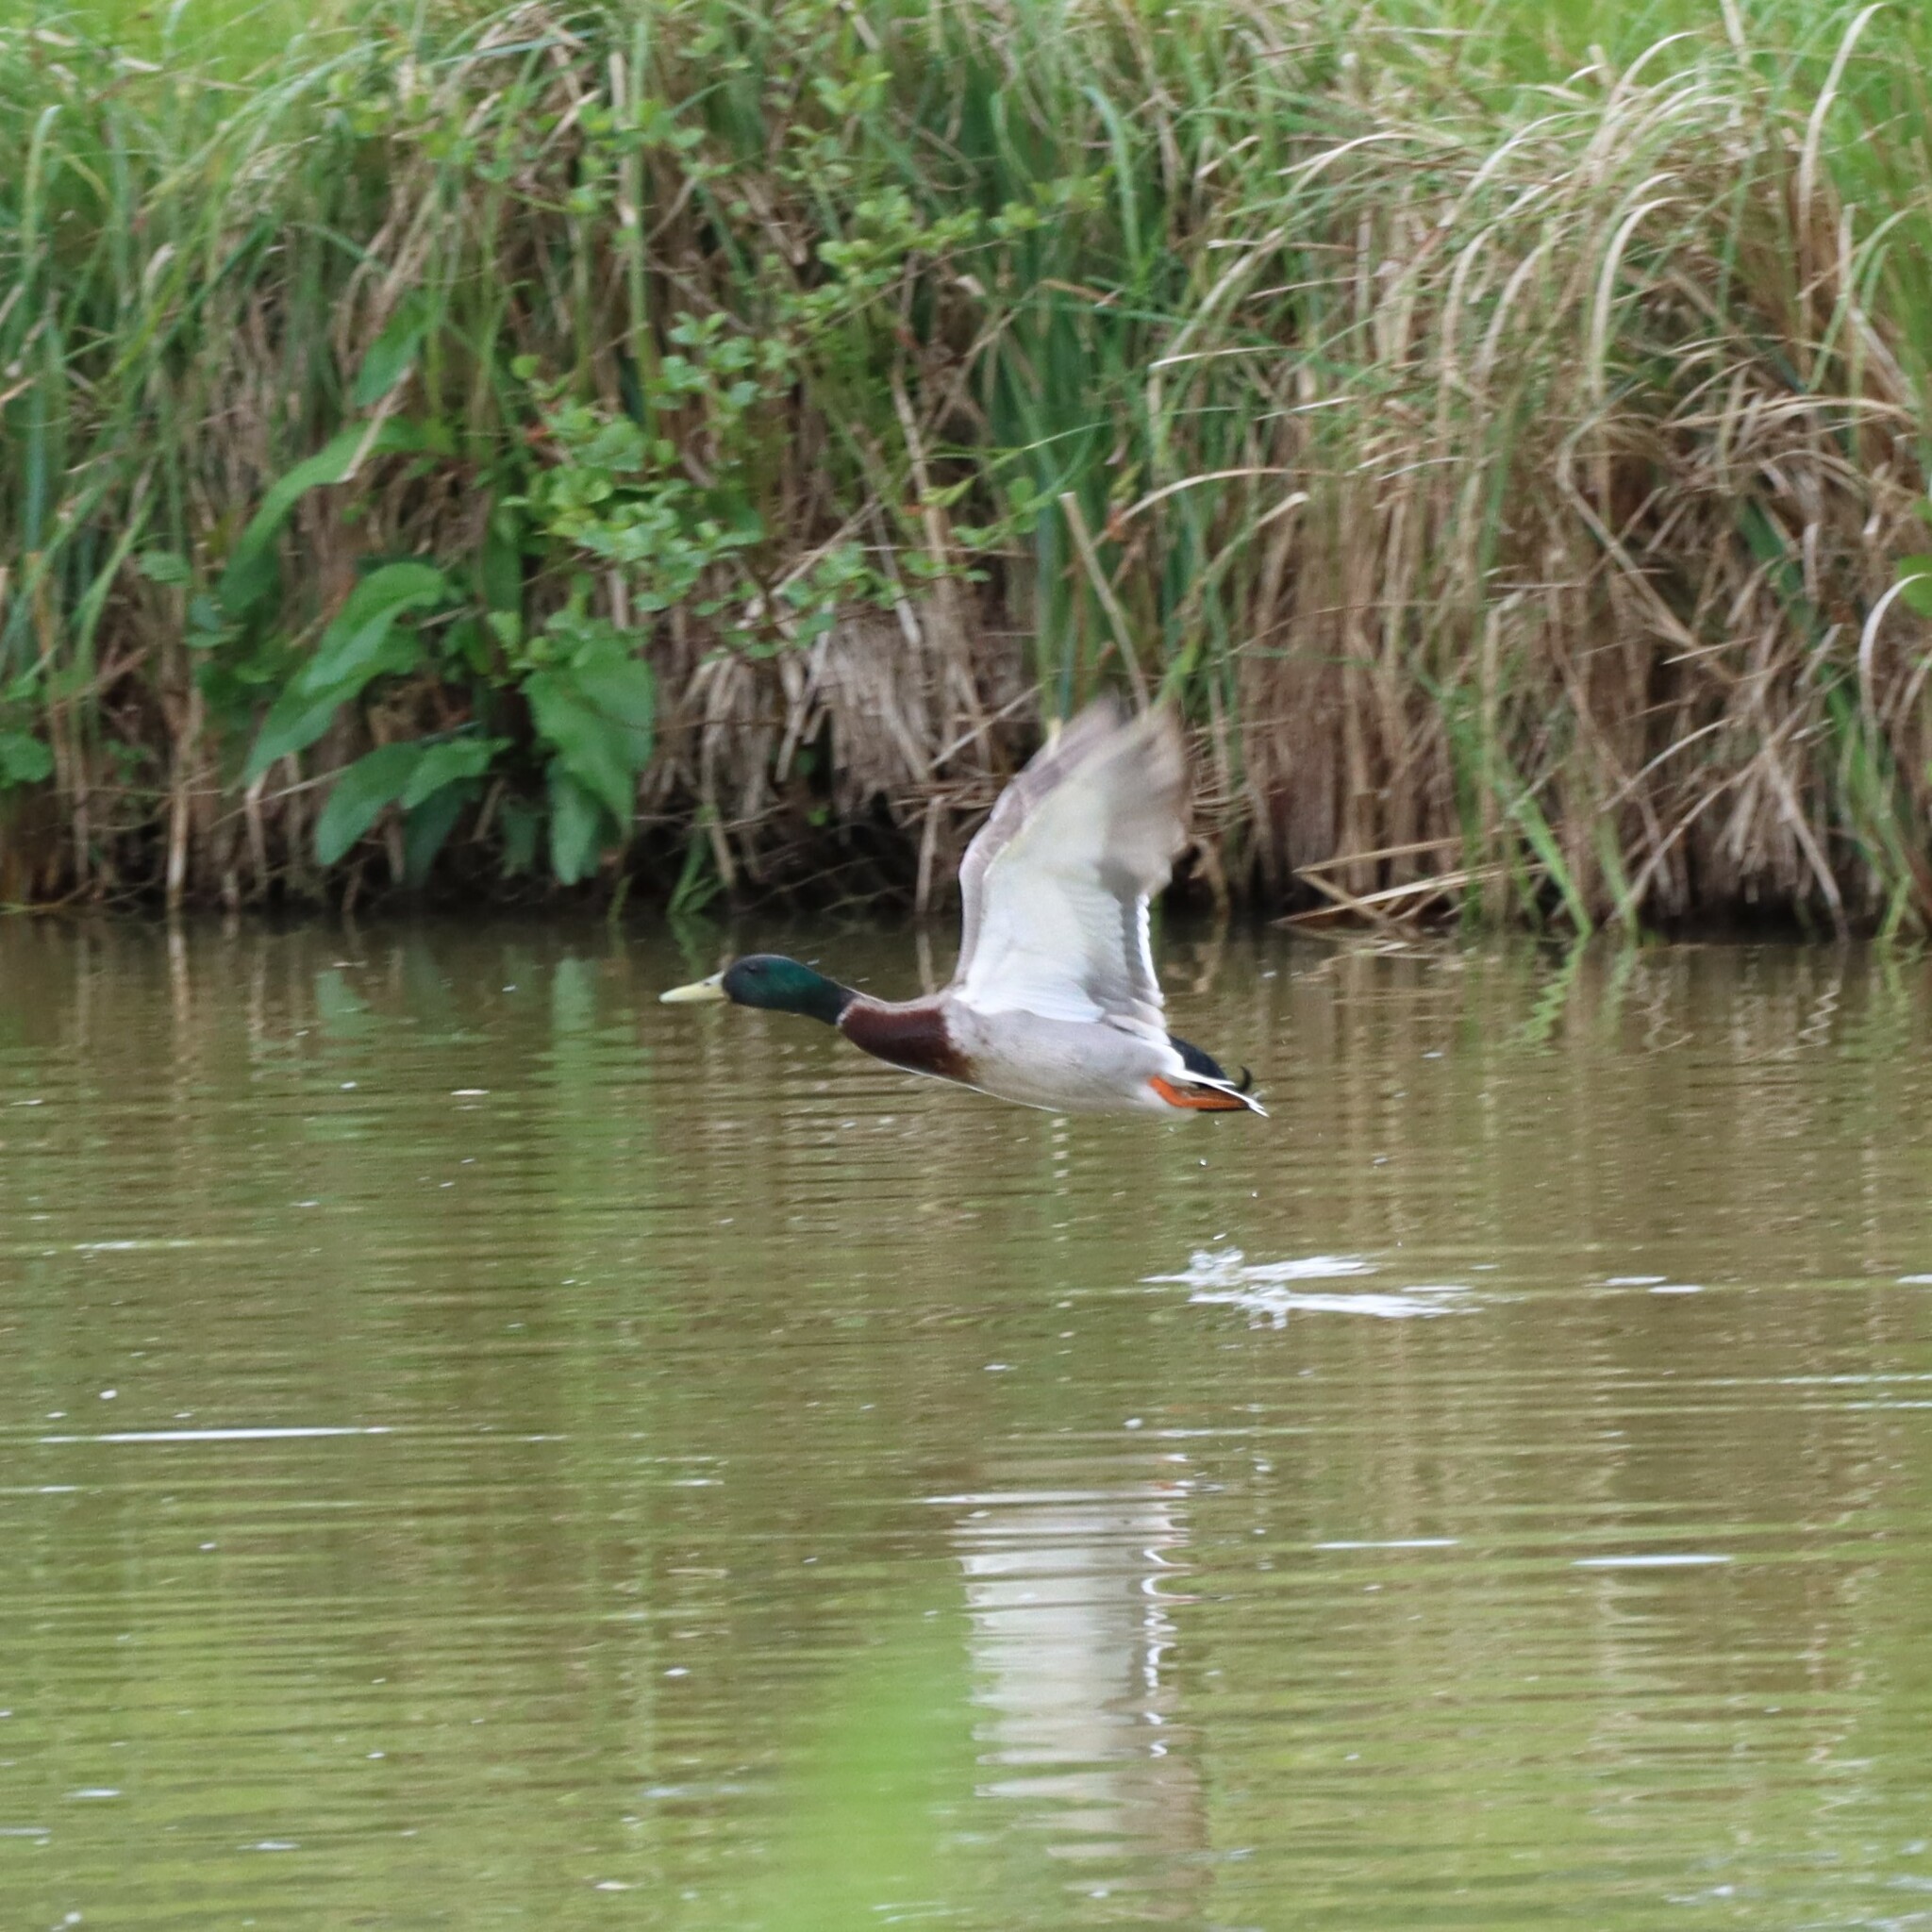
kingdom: Animalia
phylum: Chordata
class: Aves
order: Anseriformes
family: Anatidae
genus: Anas
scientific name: Anas platyrhynchos
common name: Mallard
